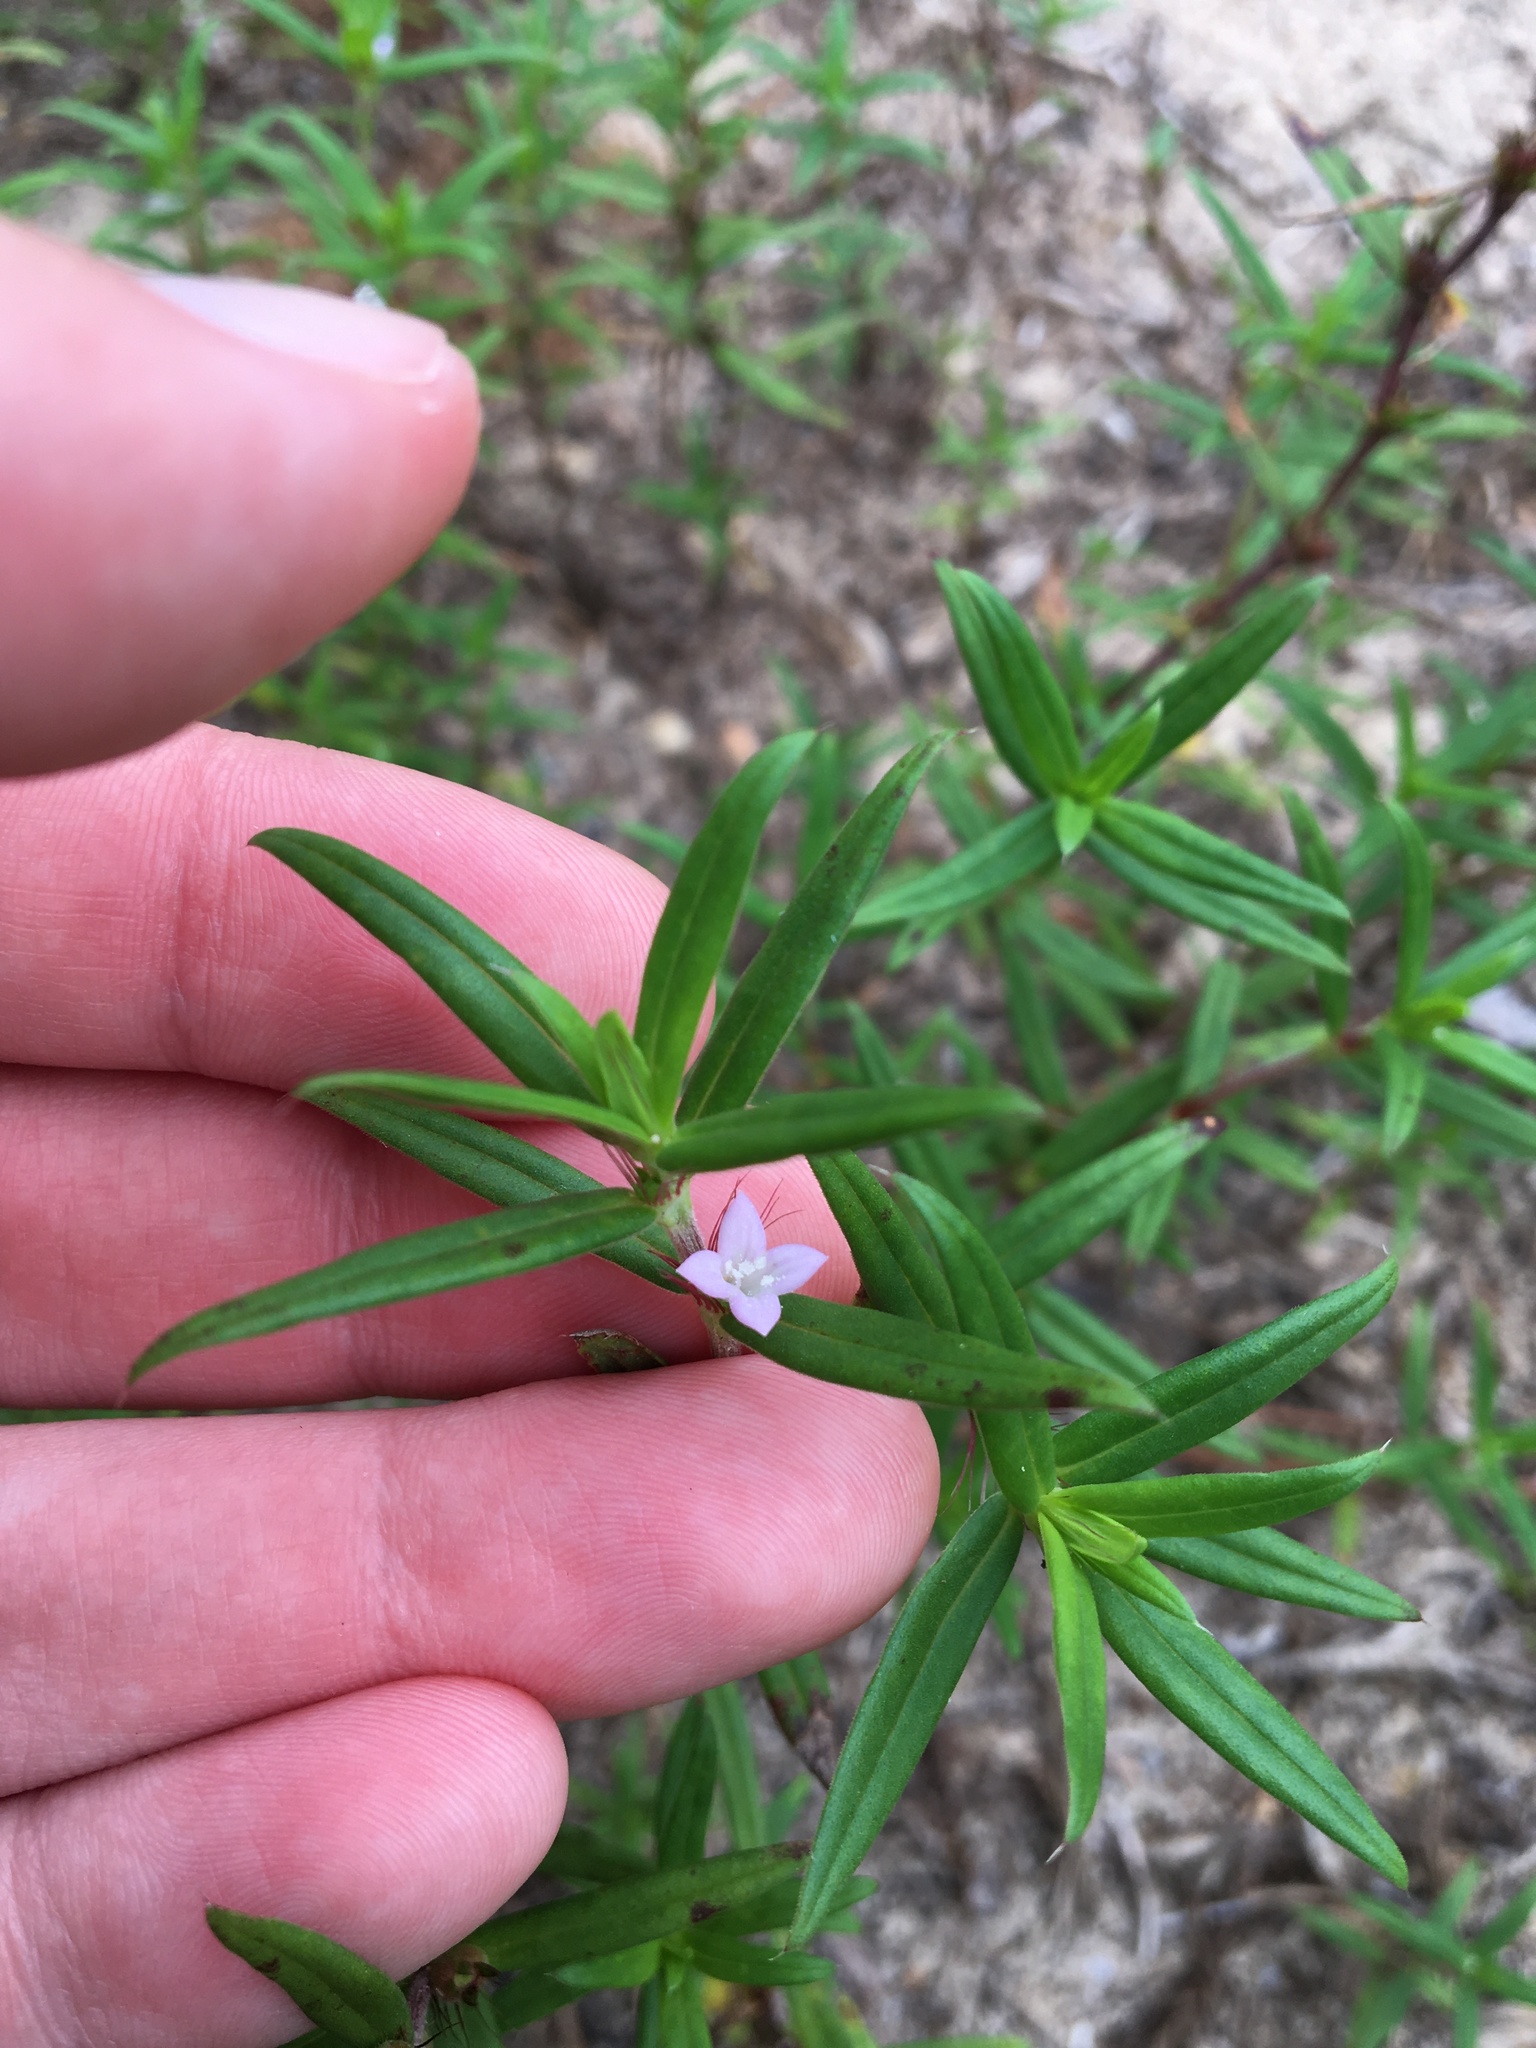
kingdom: Plantae
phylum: Tracheophyta
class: Magnoliopsida
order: Gentianales
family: Rubiaceae
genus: Hexasepalum
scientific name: Hexasepalum teres
